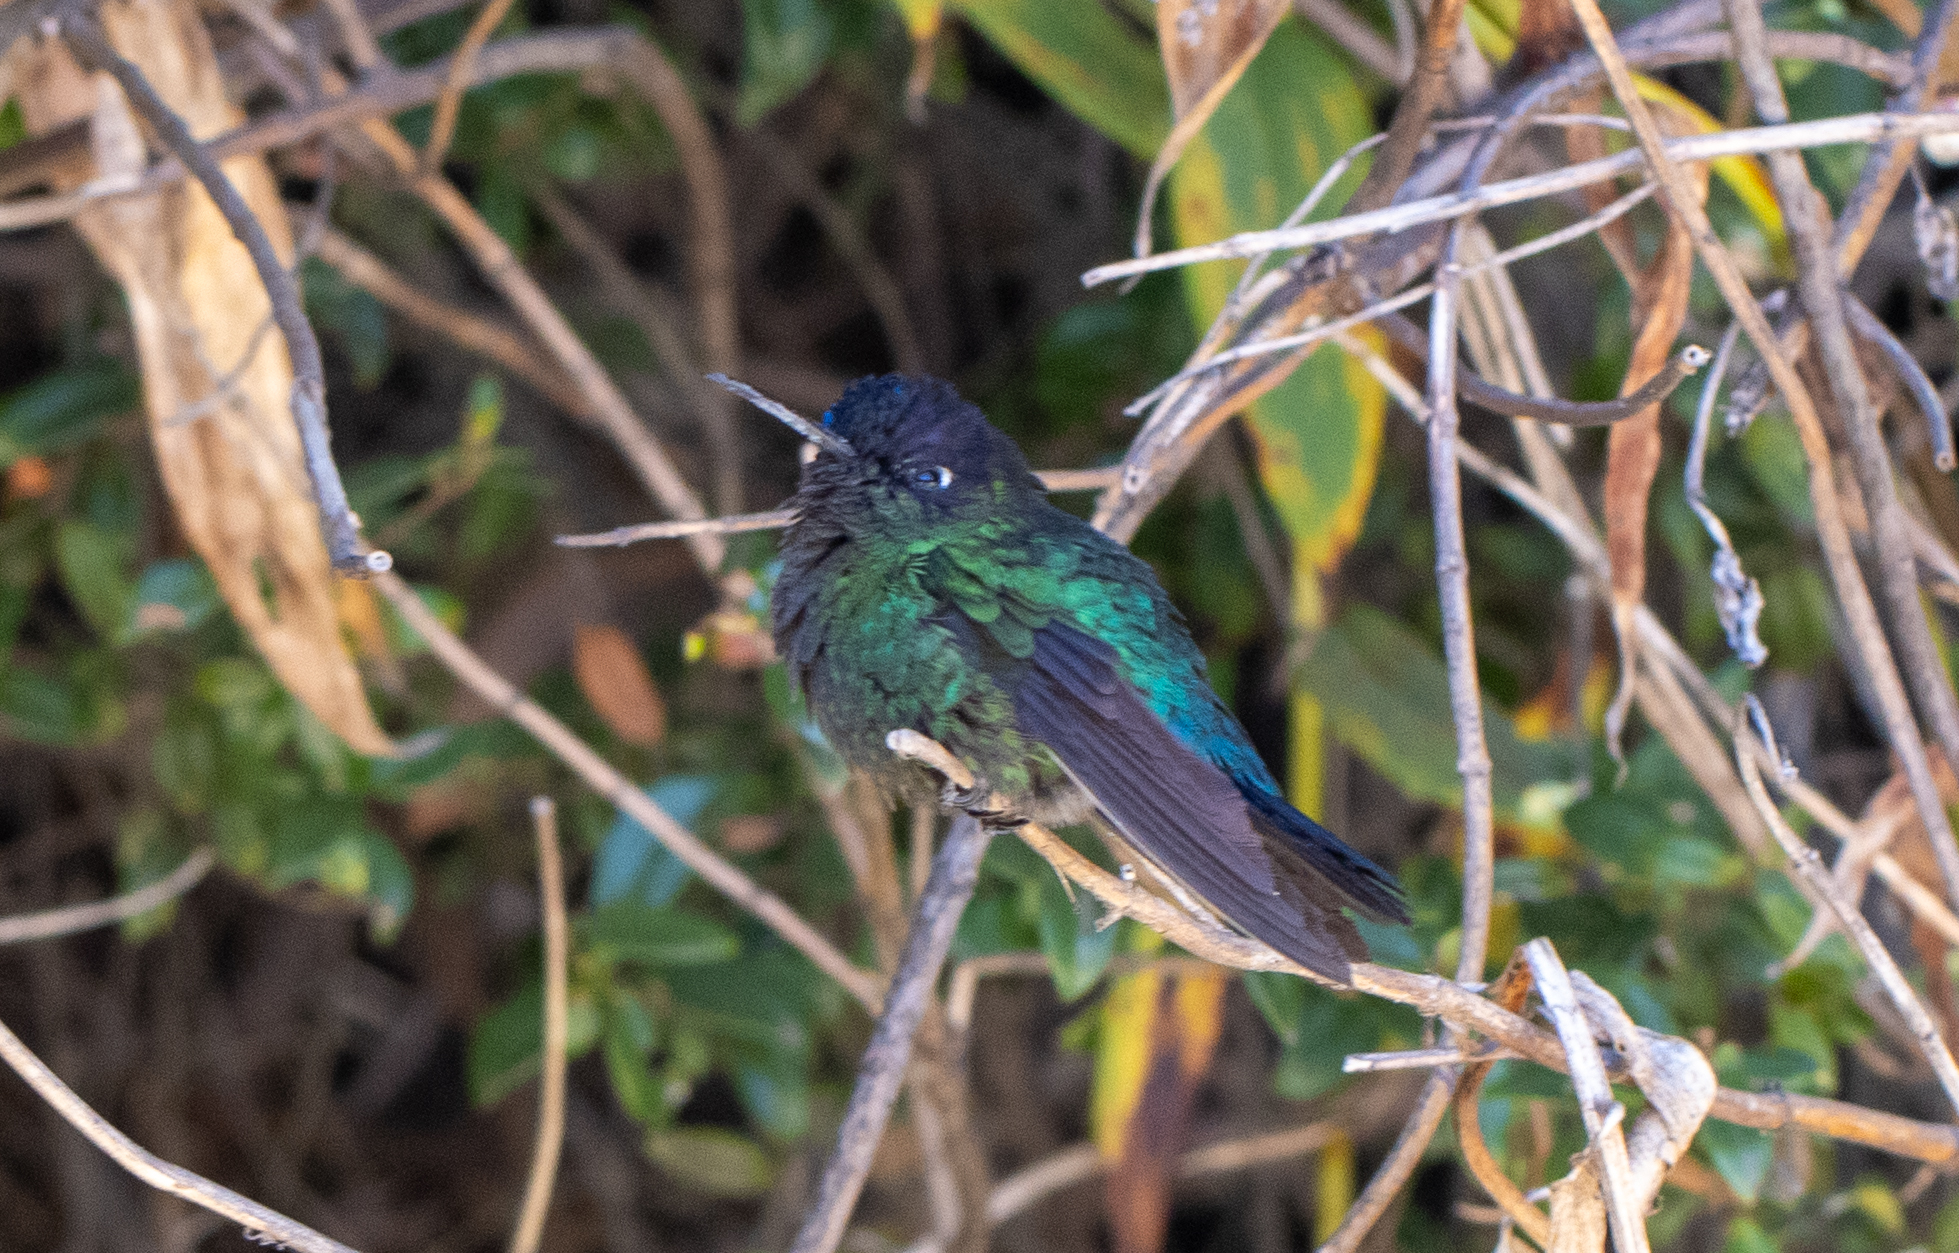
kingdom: Animalia
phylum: Chordata
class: Aves
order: Apodiformes
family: Trochilidae
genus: Panterpe
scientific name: Panterpe insignis
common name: Fiery-throated hummingbird
